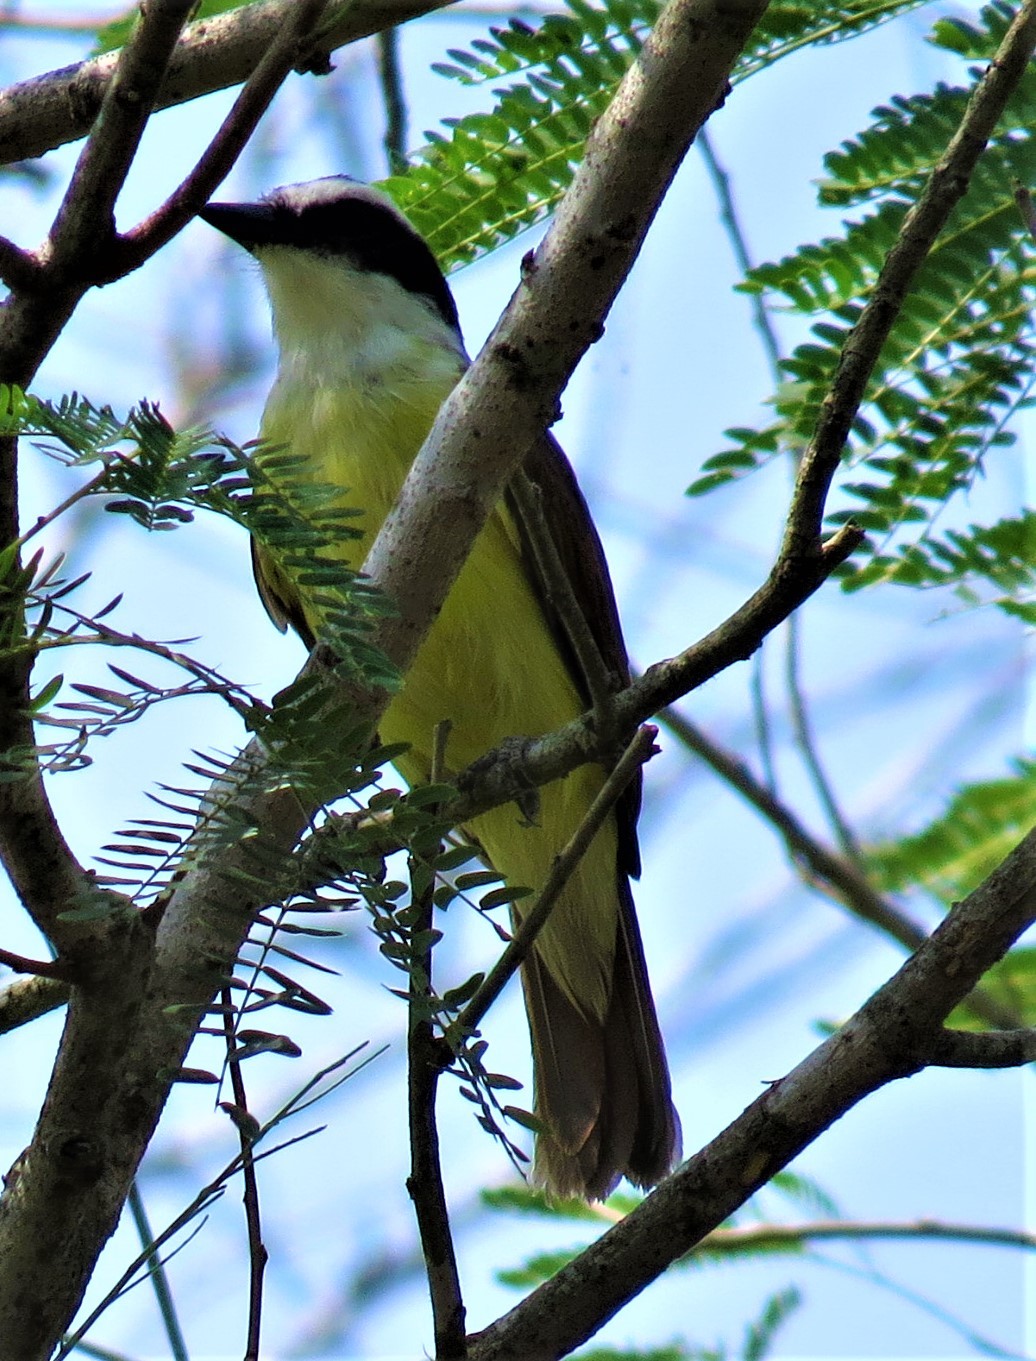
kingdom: Animalia
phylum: Chordata
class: Aves
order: Passeriformes
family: Tyrannidae
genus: Pitangus
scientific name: Pitangus sulphuratus
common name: Great kiskadee
